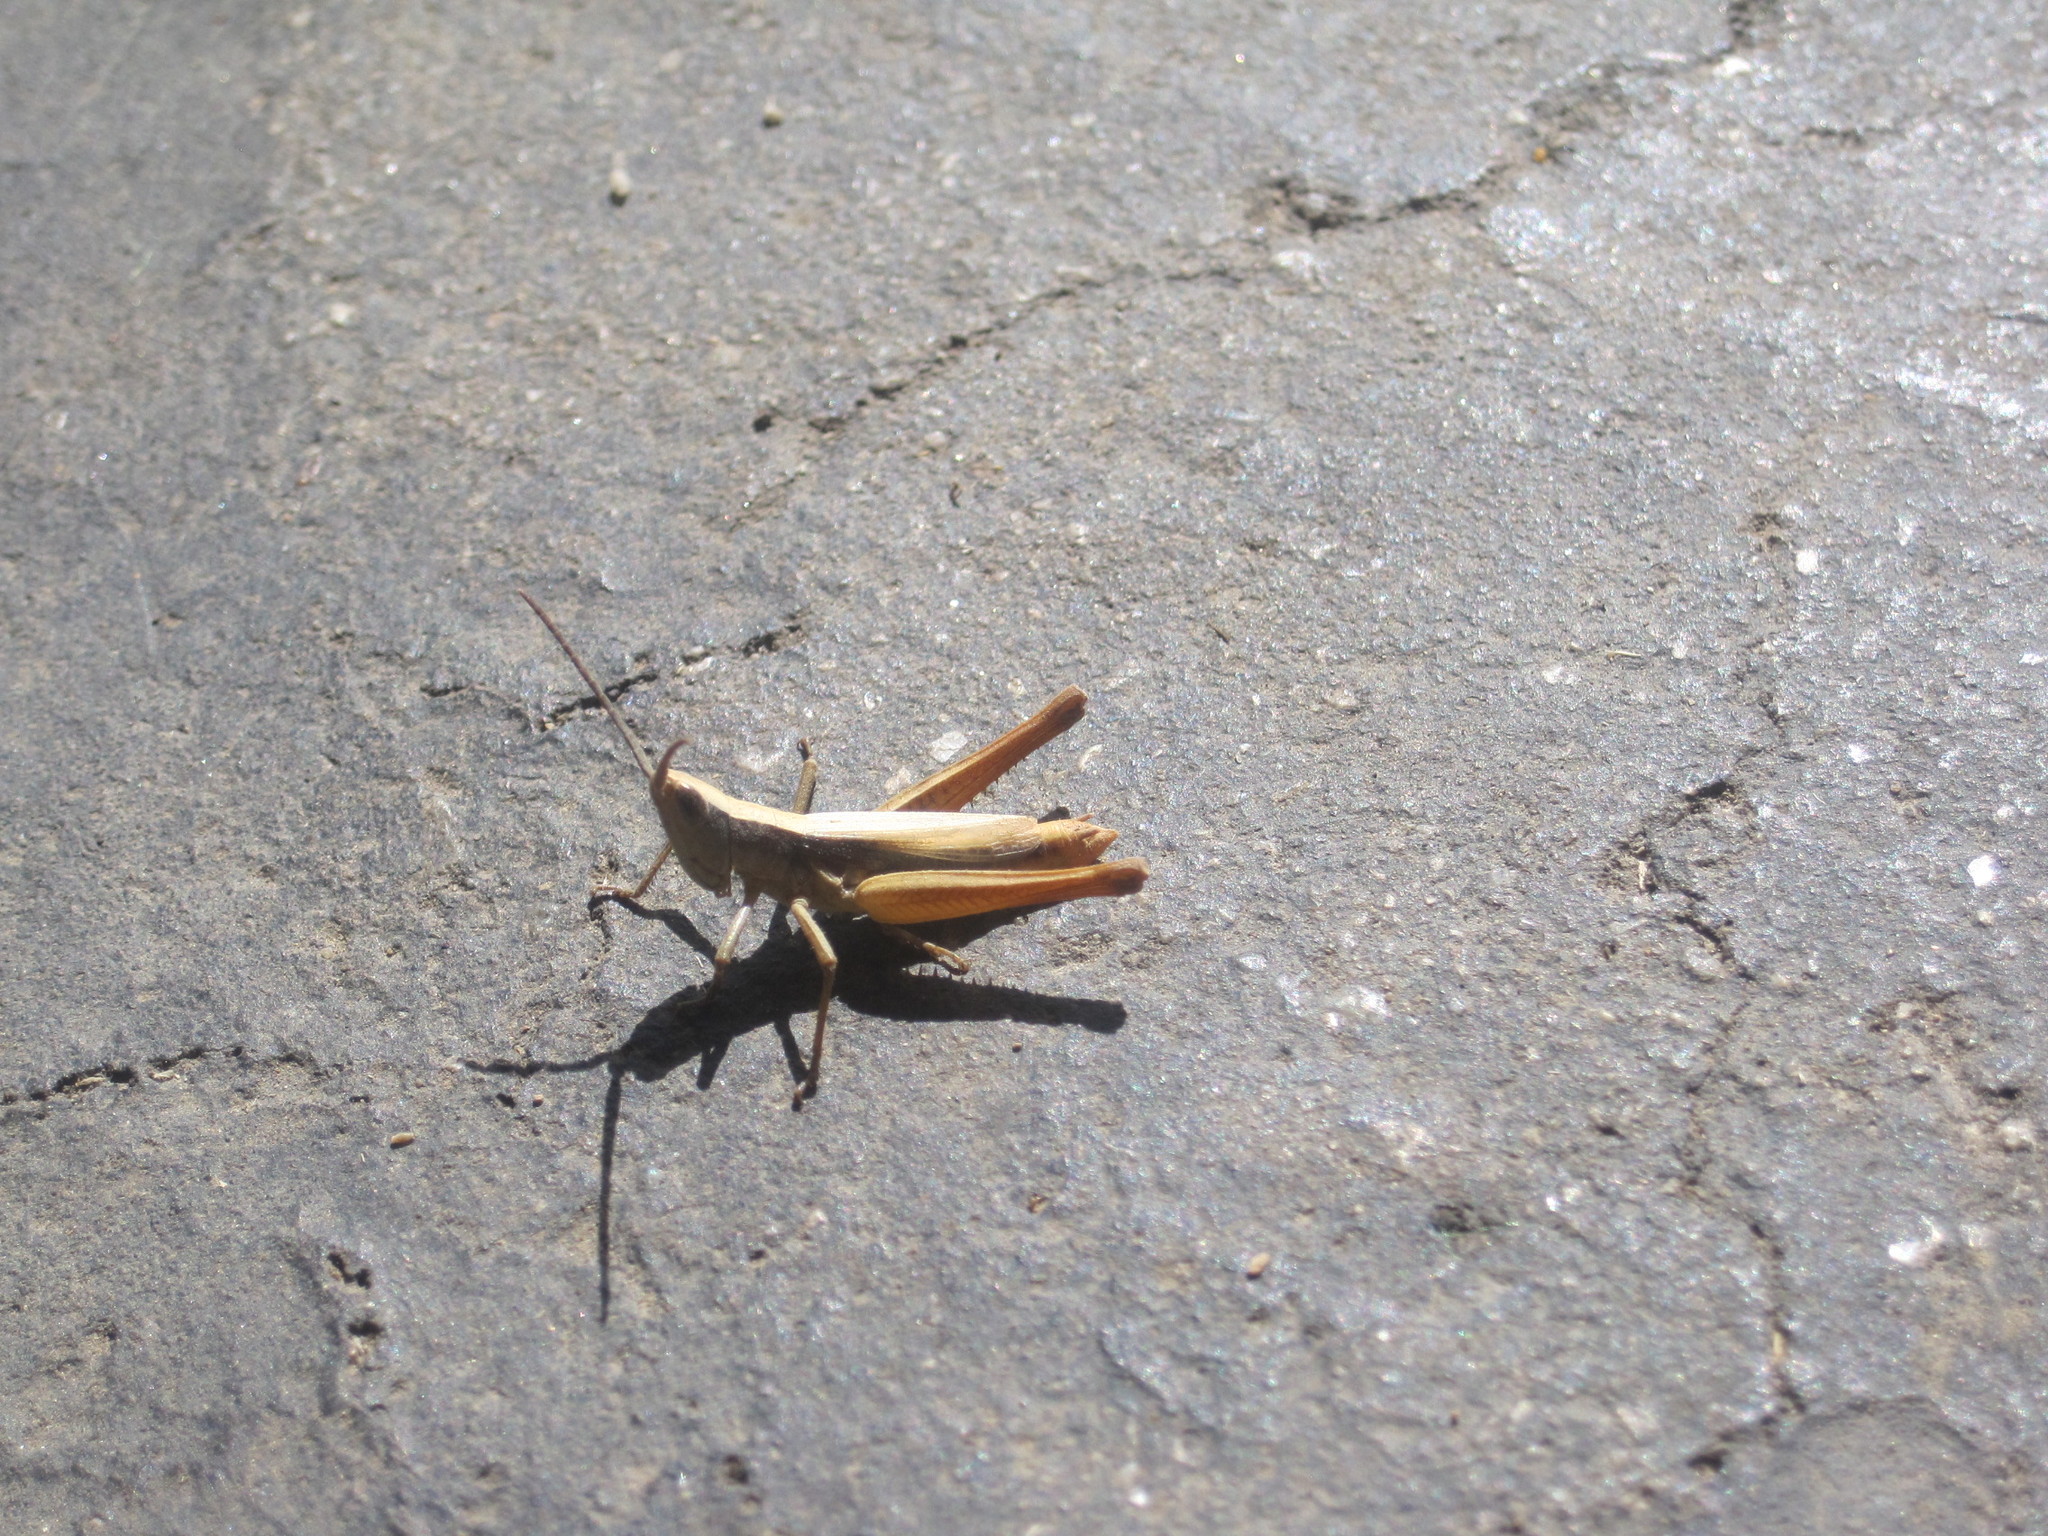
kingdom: Animalia
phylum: Arthropoda
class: Insecta
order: Orthoptera
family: Acrididae
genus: Chloealtis
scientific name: Chloealtis gracilis
